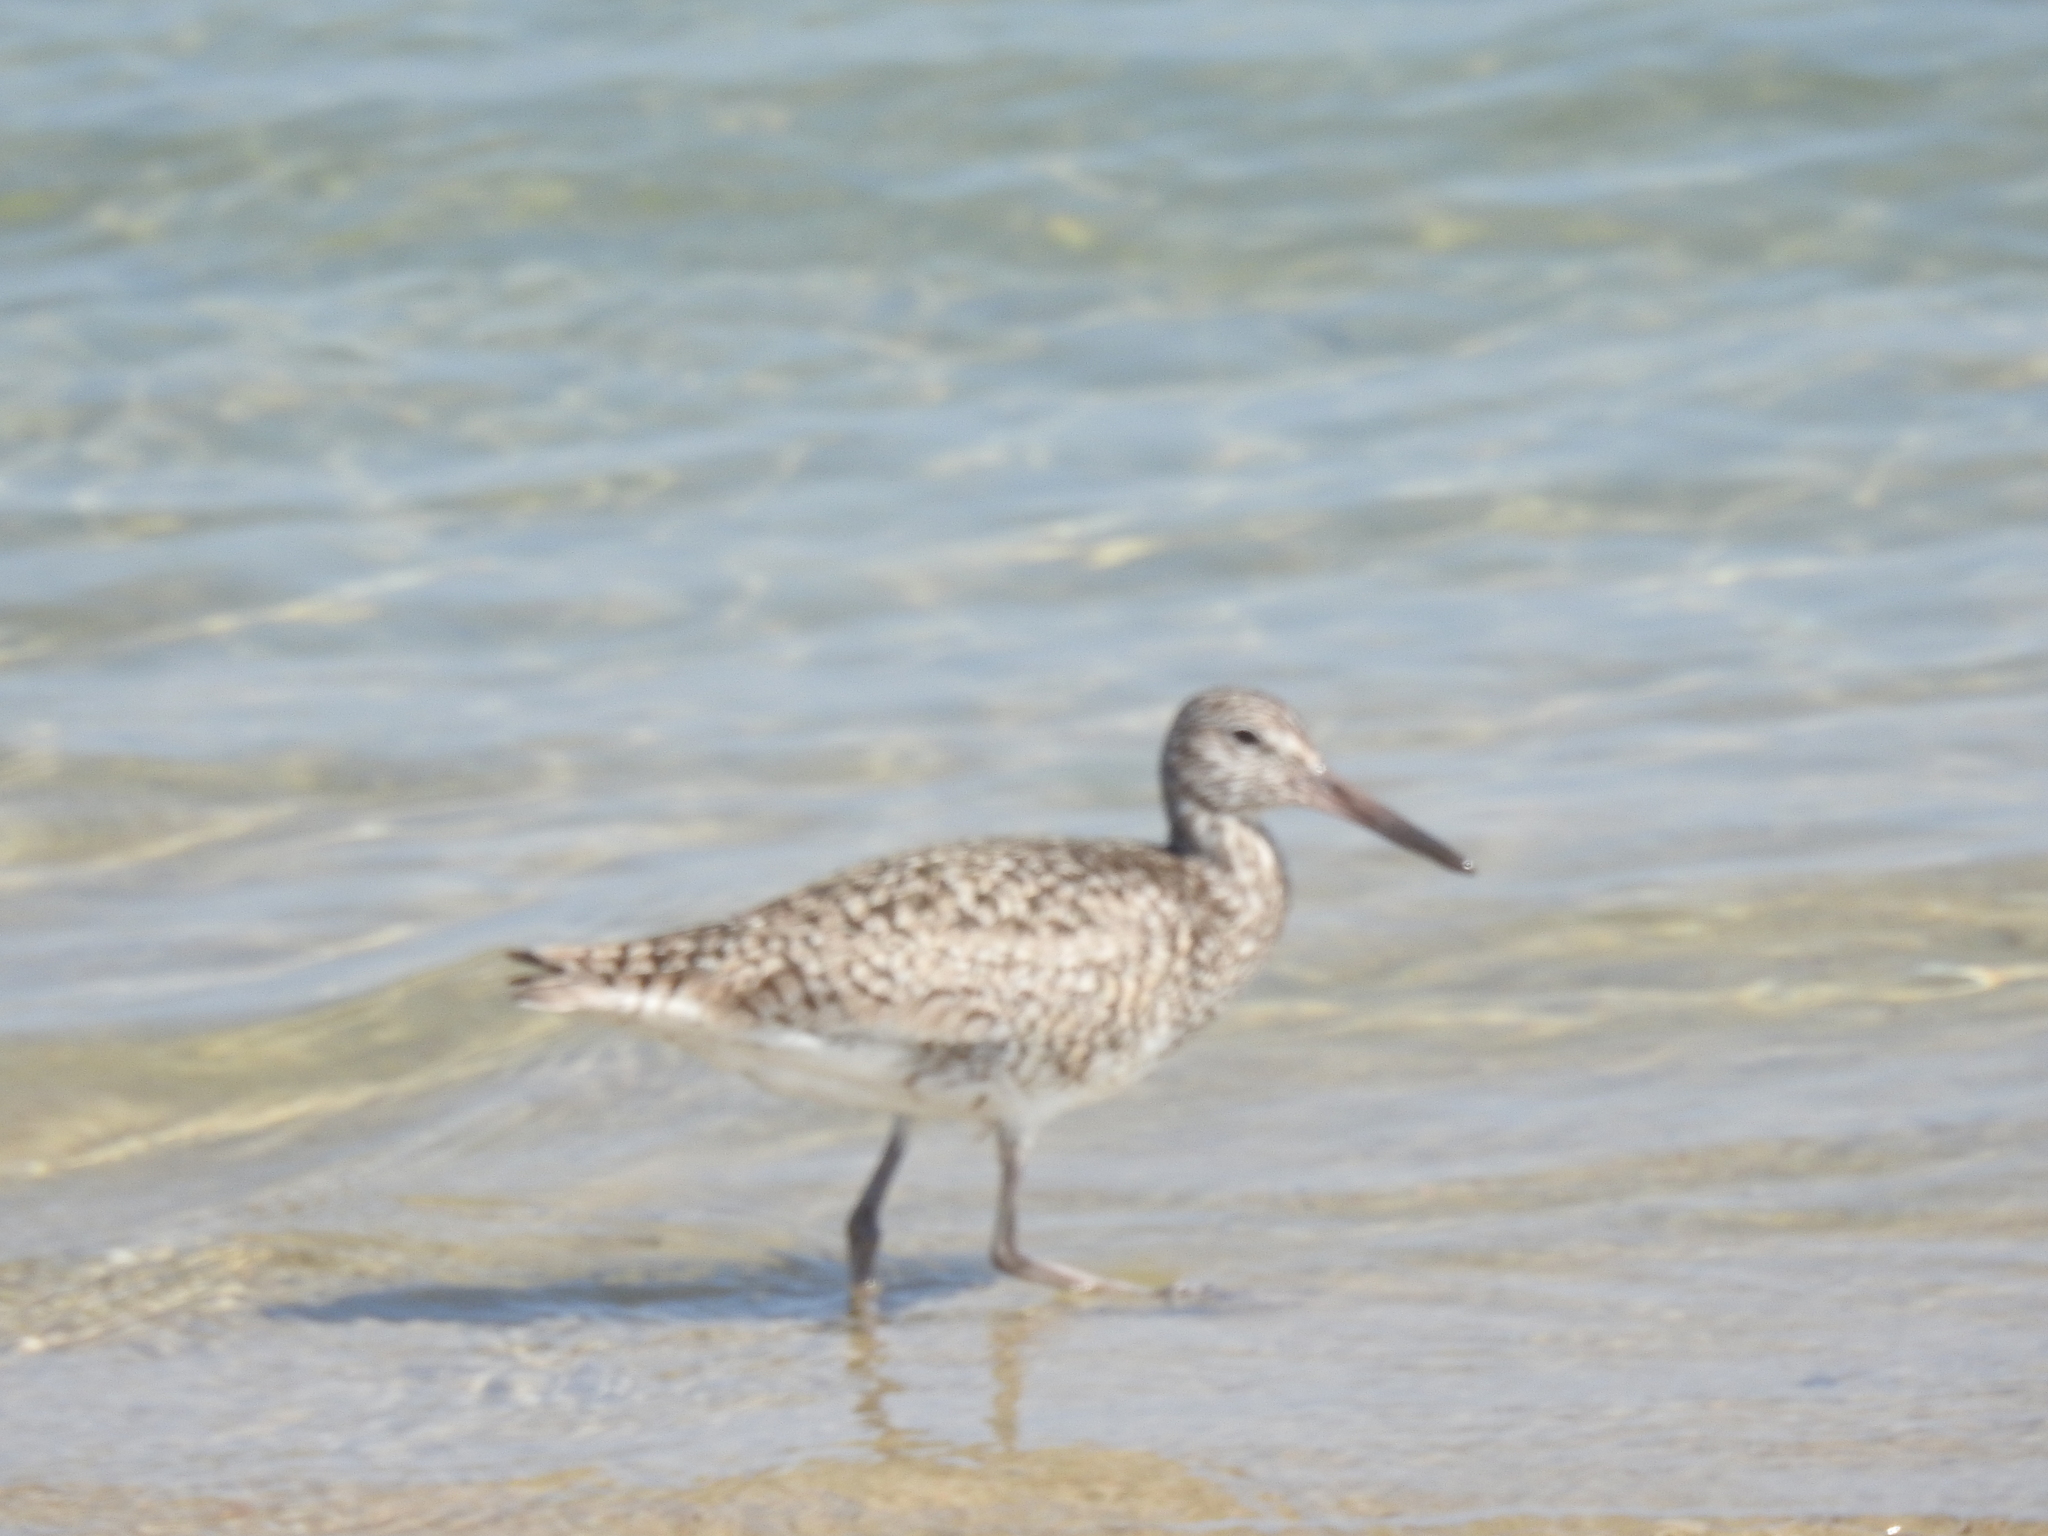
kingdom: Animalia
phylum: Chordata
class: Aves
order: Charadriiformes
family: Scolopacidae
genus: Tringa
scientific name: Tringa semipalmata
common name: Willet
